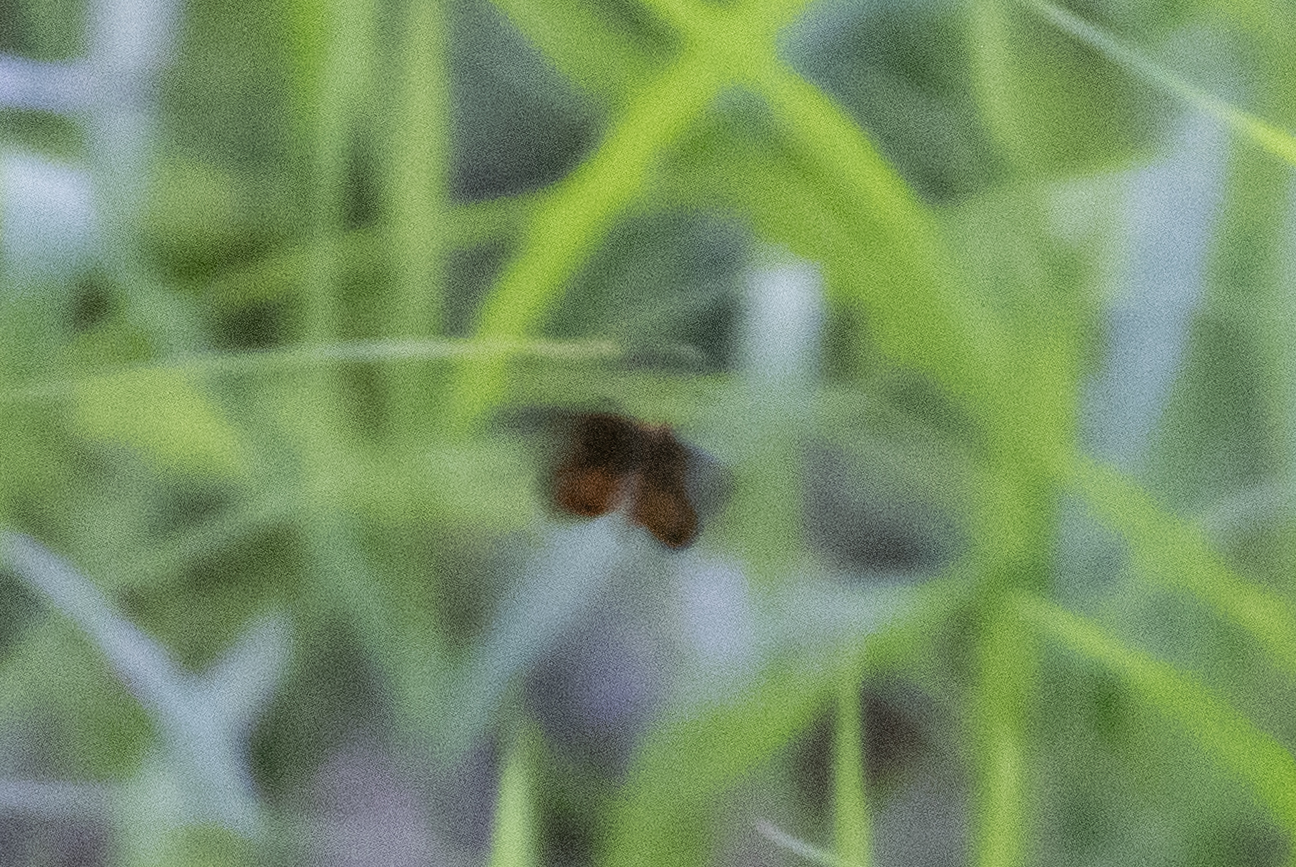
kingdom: Animalia
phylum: Arthropoda
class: Insecta
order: Lepidoptera
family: Hesperiidae
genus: Ancyloxypha
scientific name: Ancyloxypha numitor
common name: Least skipper
